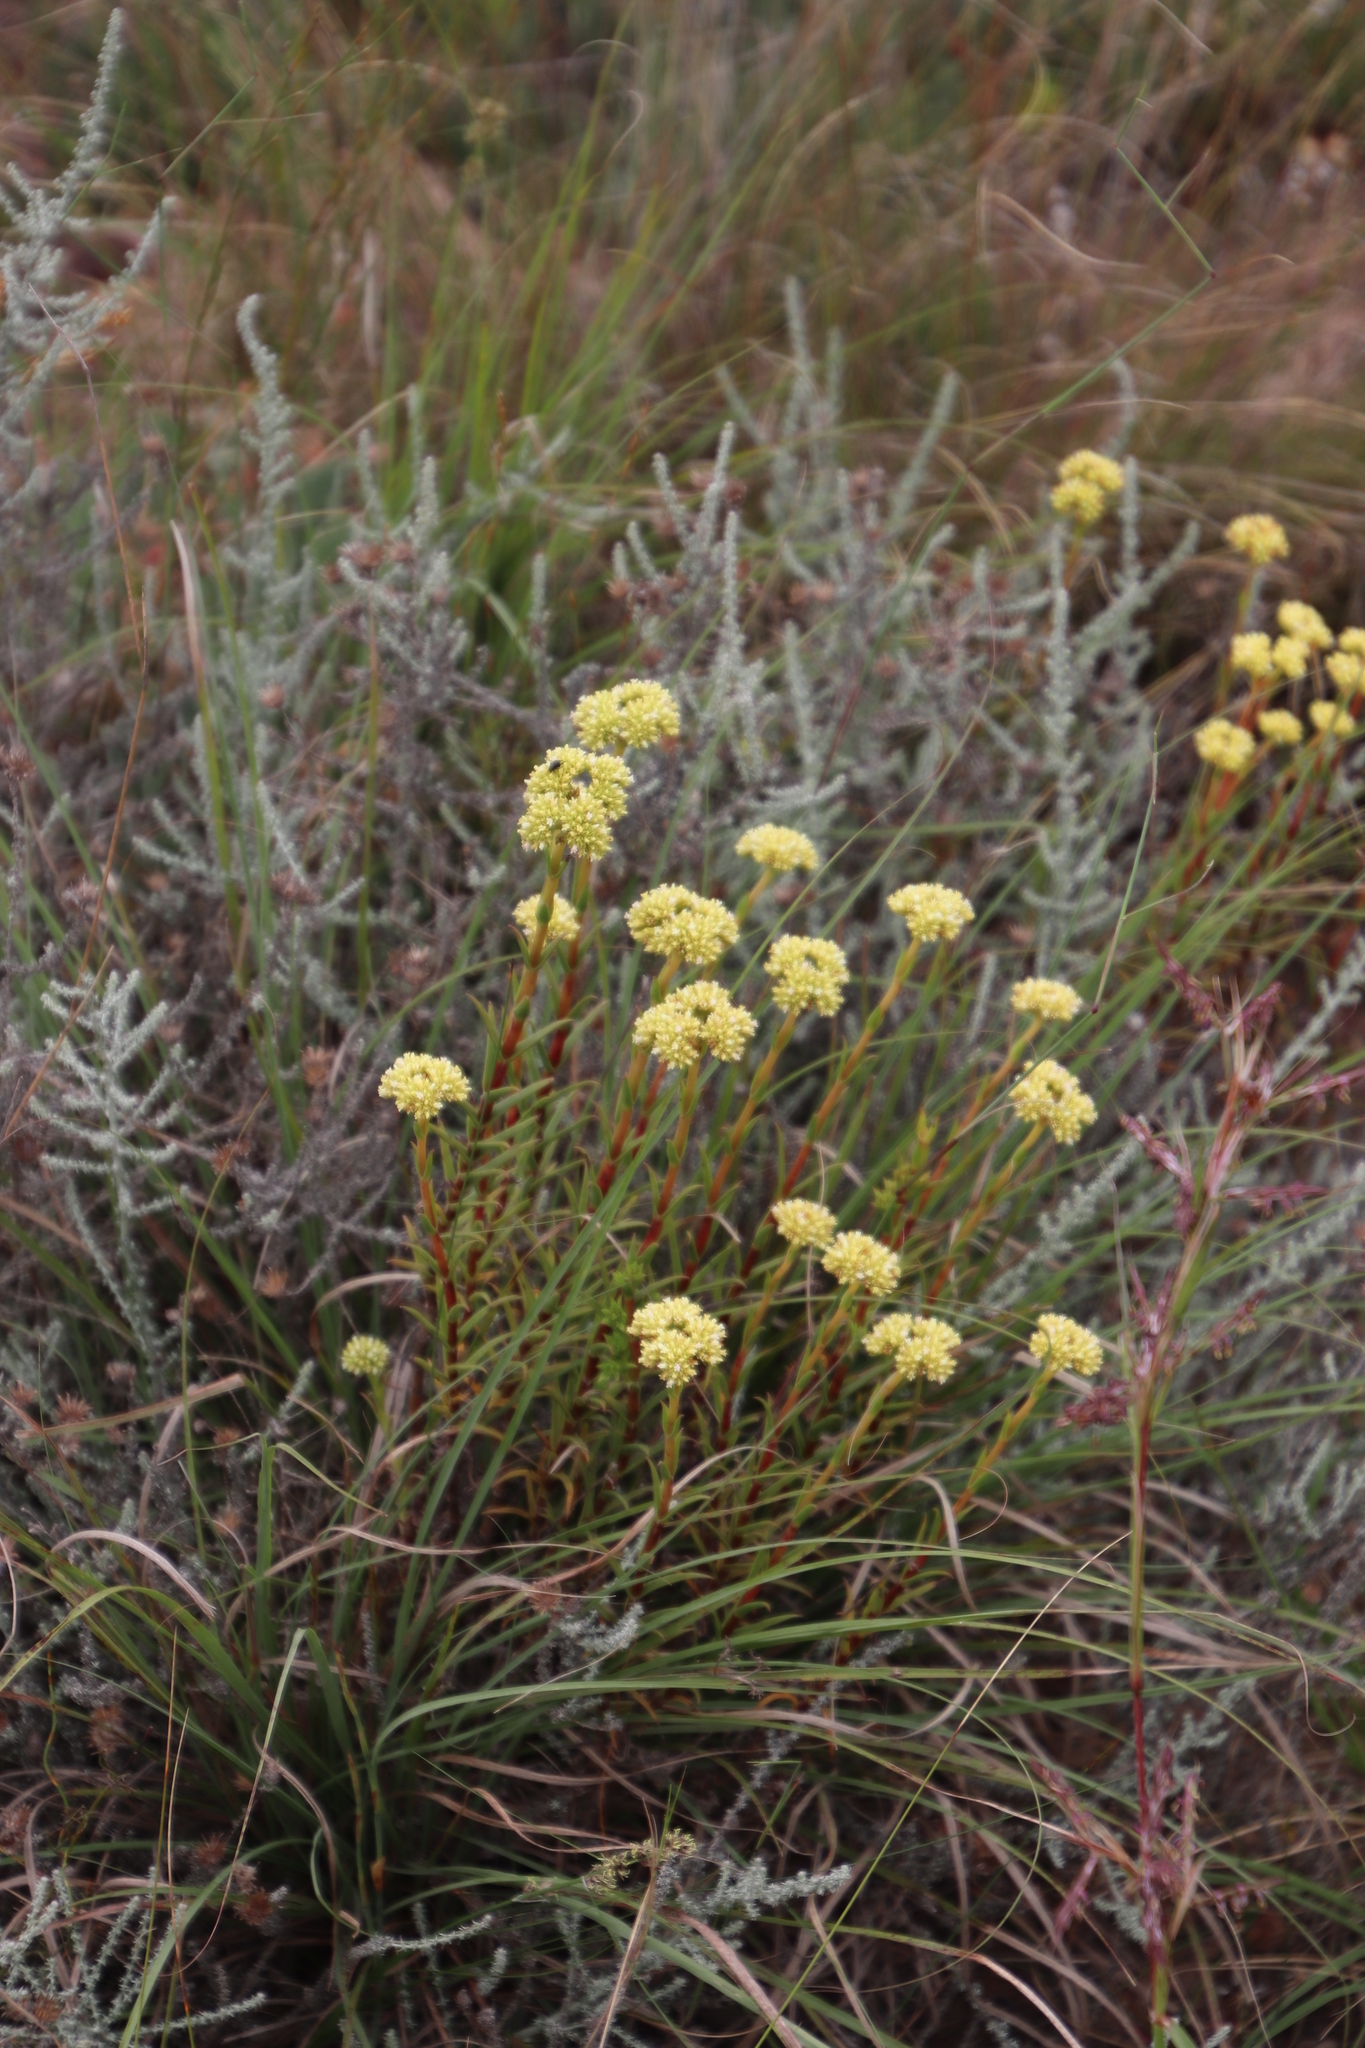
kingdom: Plantae
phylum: Tracheophyta
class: Magnoliopsida
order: Saxifragales
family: Crassulaceae
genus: Crassula
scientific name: Crassula subulata
